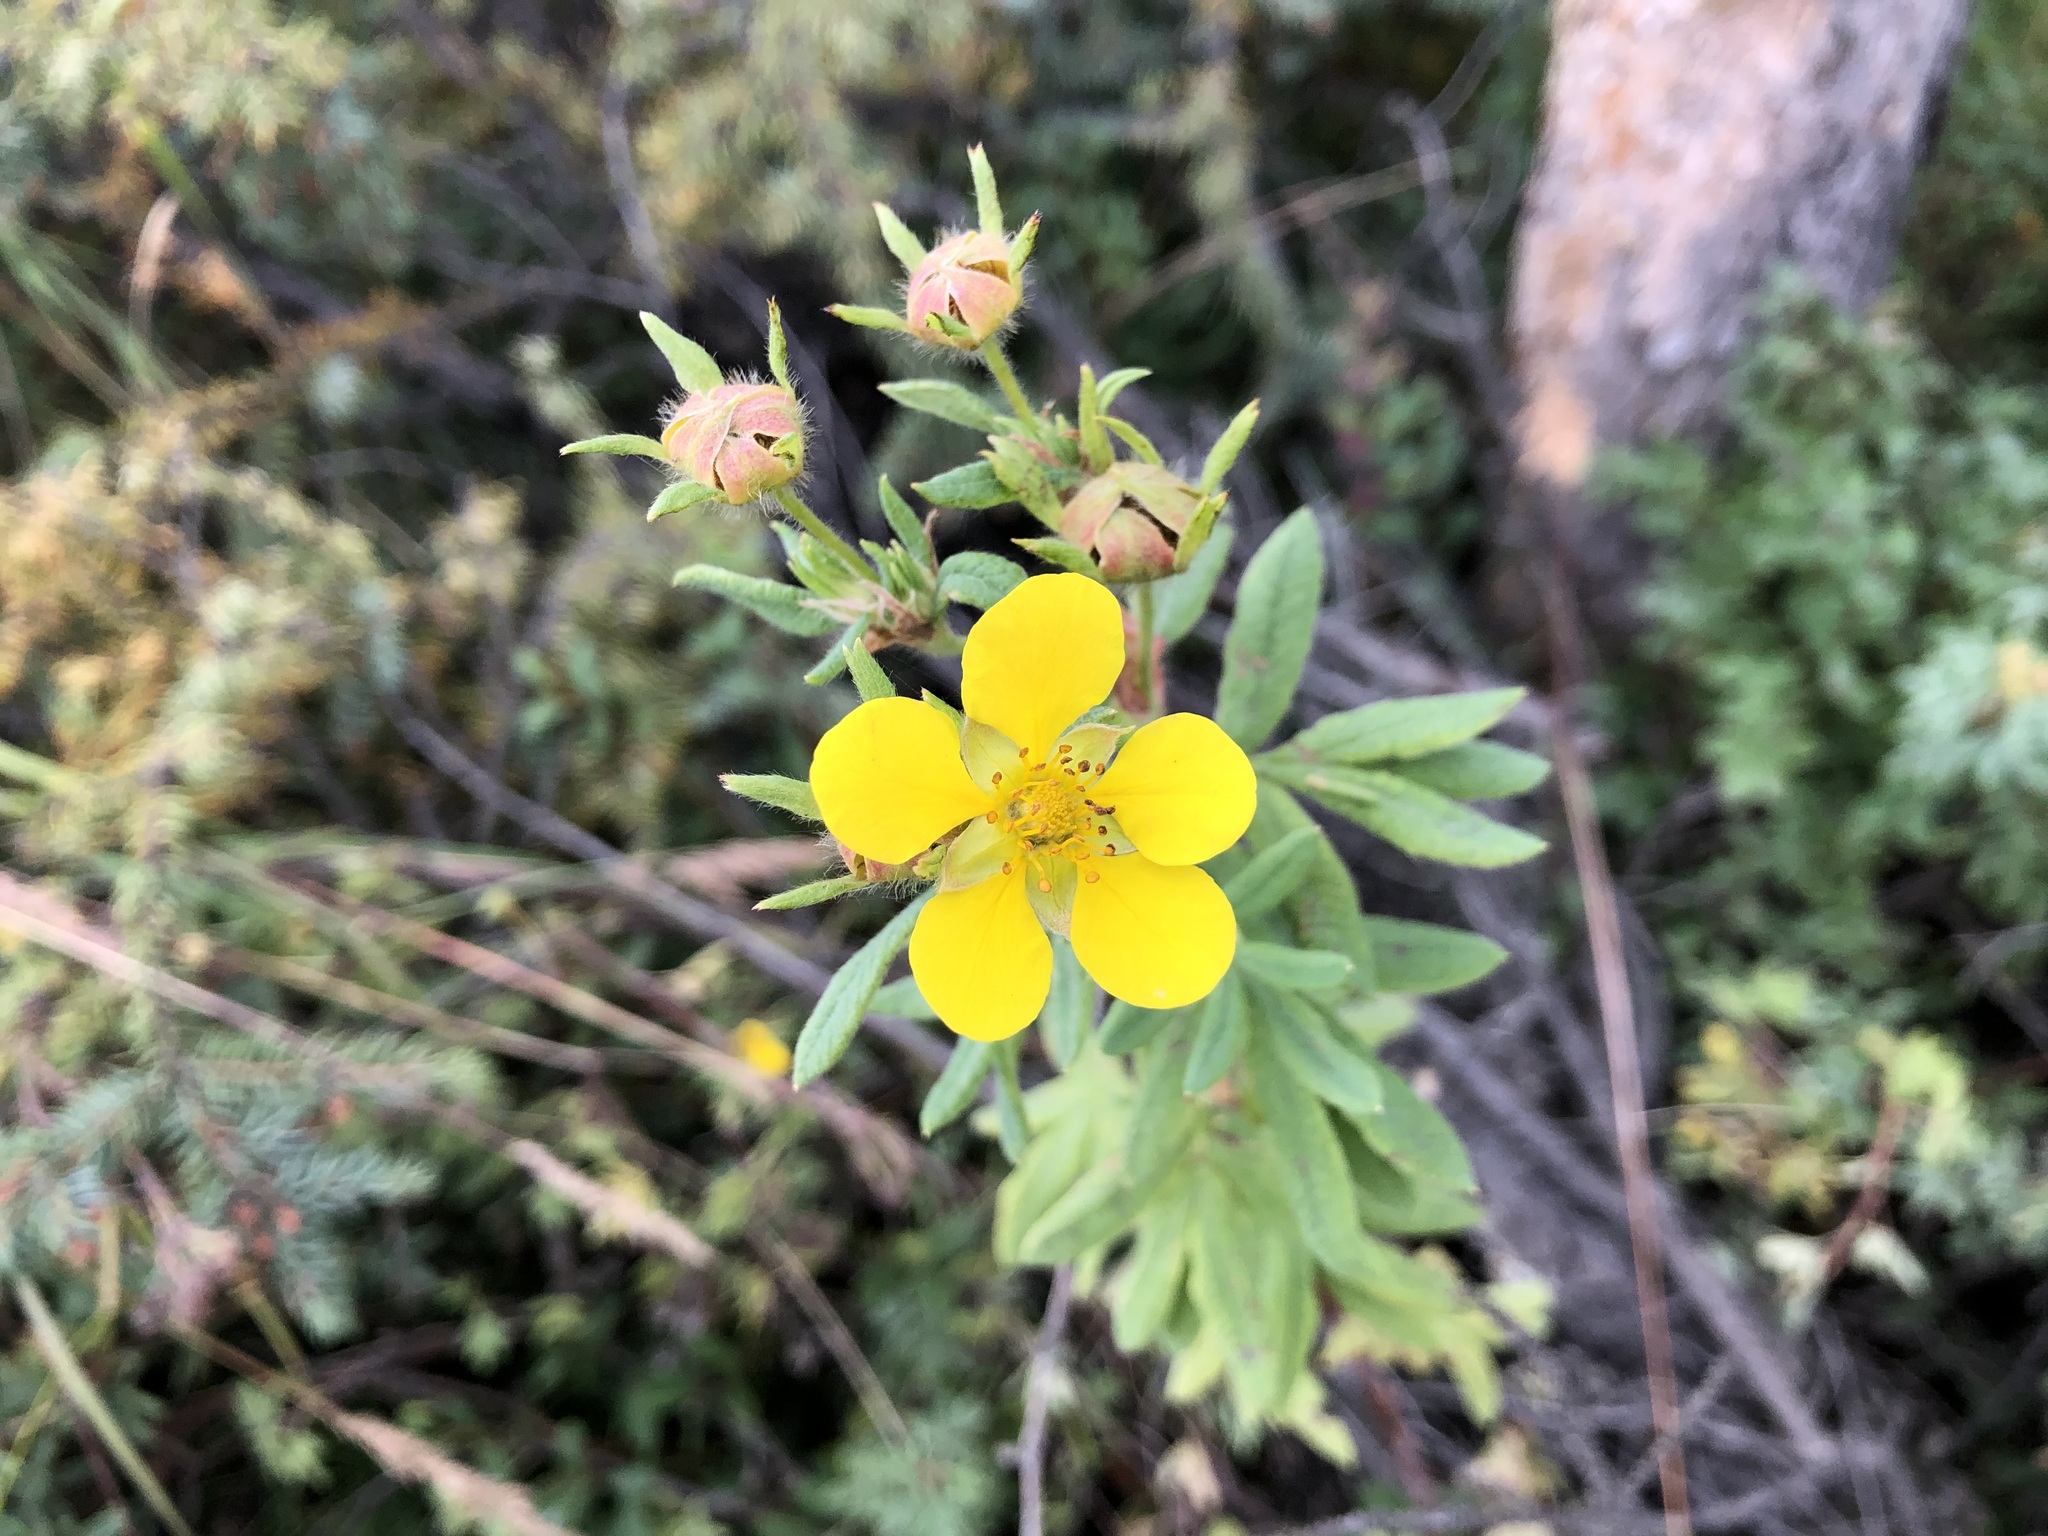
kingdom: Plantae
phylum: Tracheophyta
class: Magnoliopsida
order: Rosales
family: Rosaceae
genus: Dasiphora
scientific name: Dasiphora fruticosa
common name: Shrubby cinquefoil
